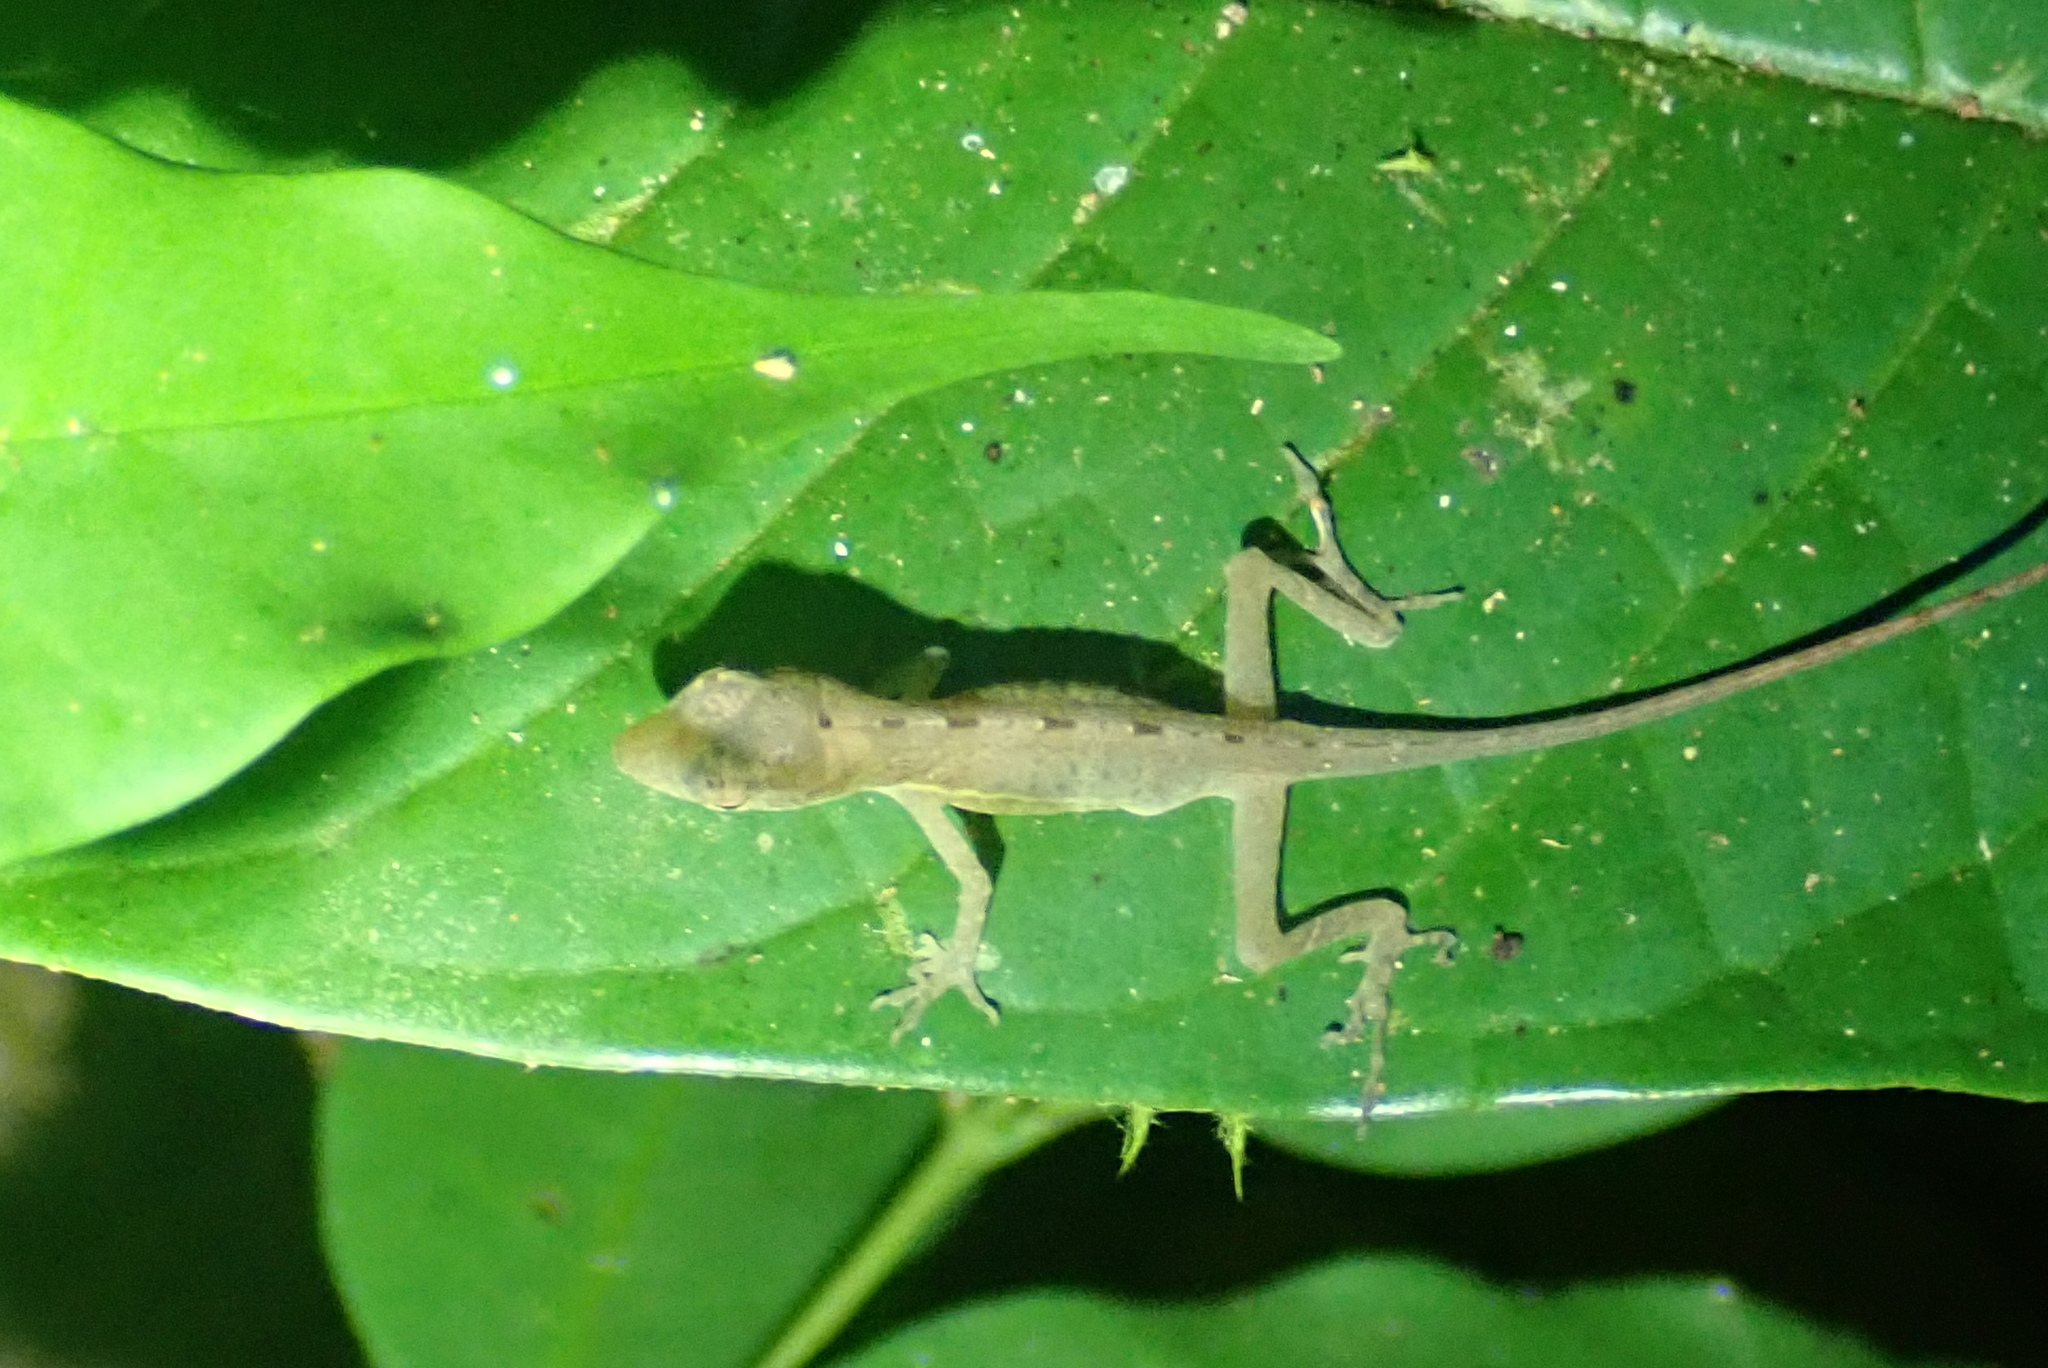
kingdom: Animalia
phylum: Chordata
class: Squamata
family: Dactyloidae
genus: Anolis
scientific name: Anolis limifrons
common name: Border anole
